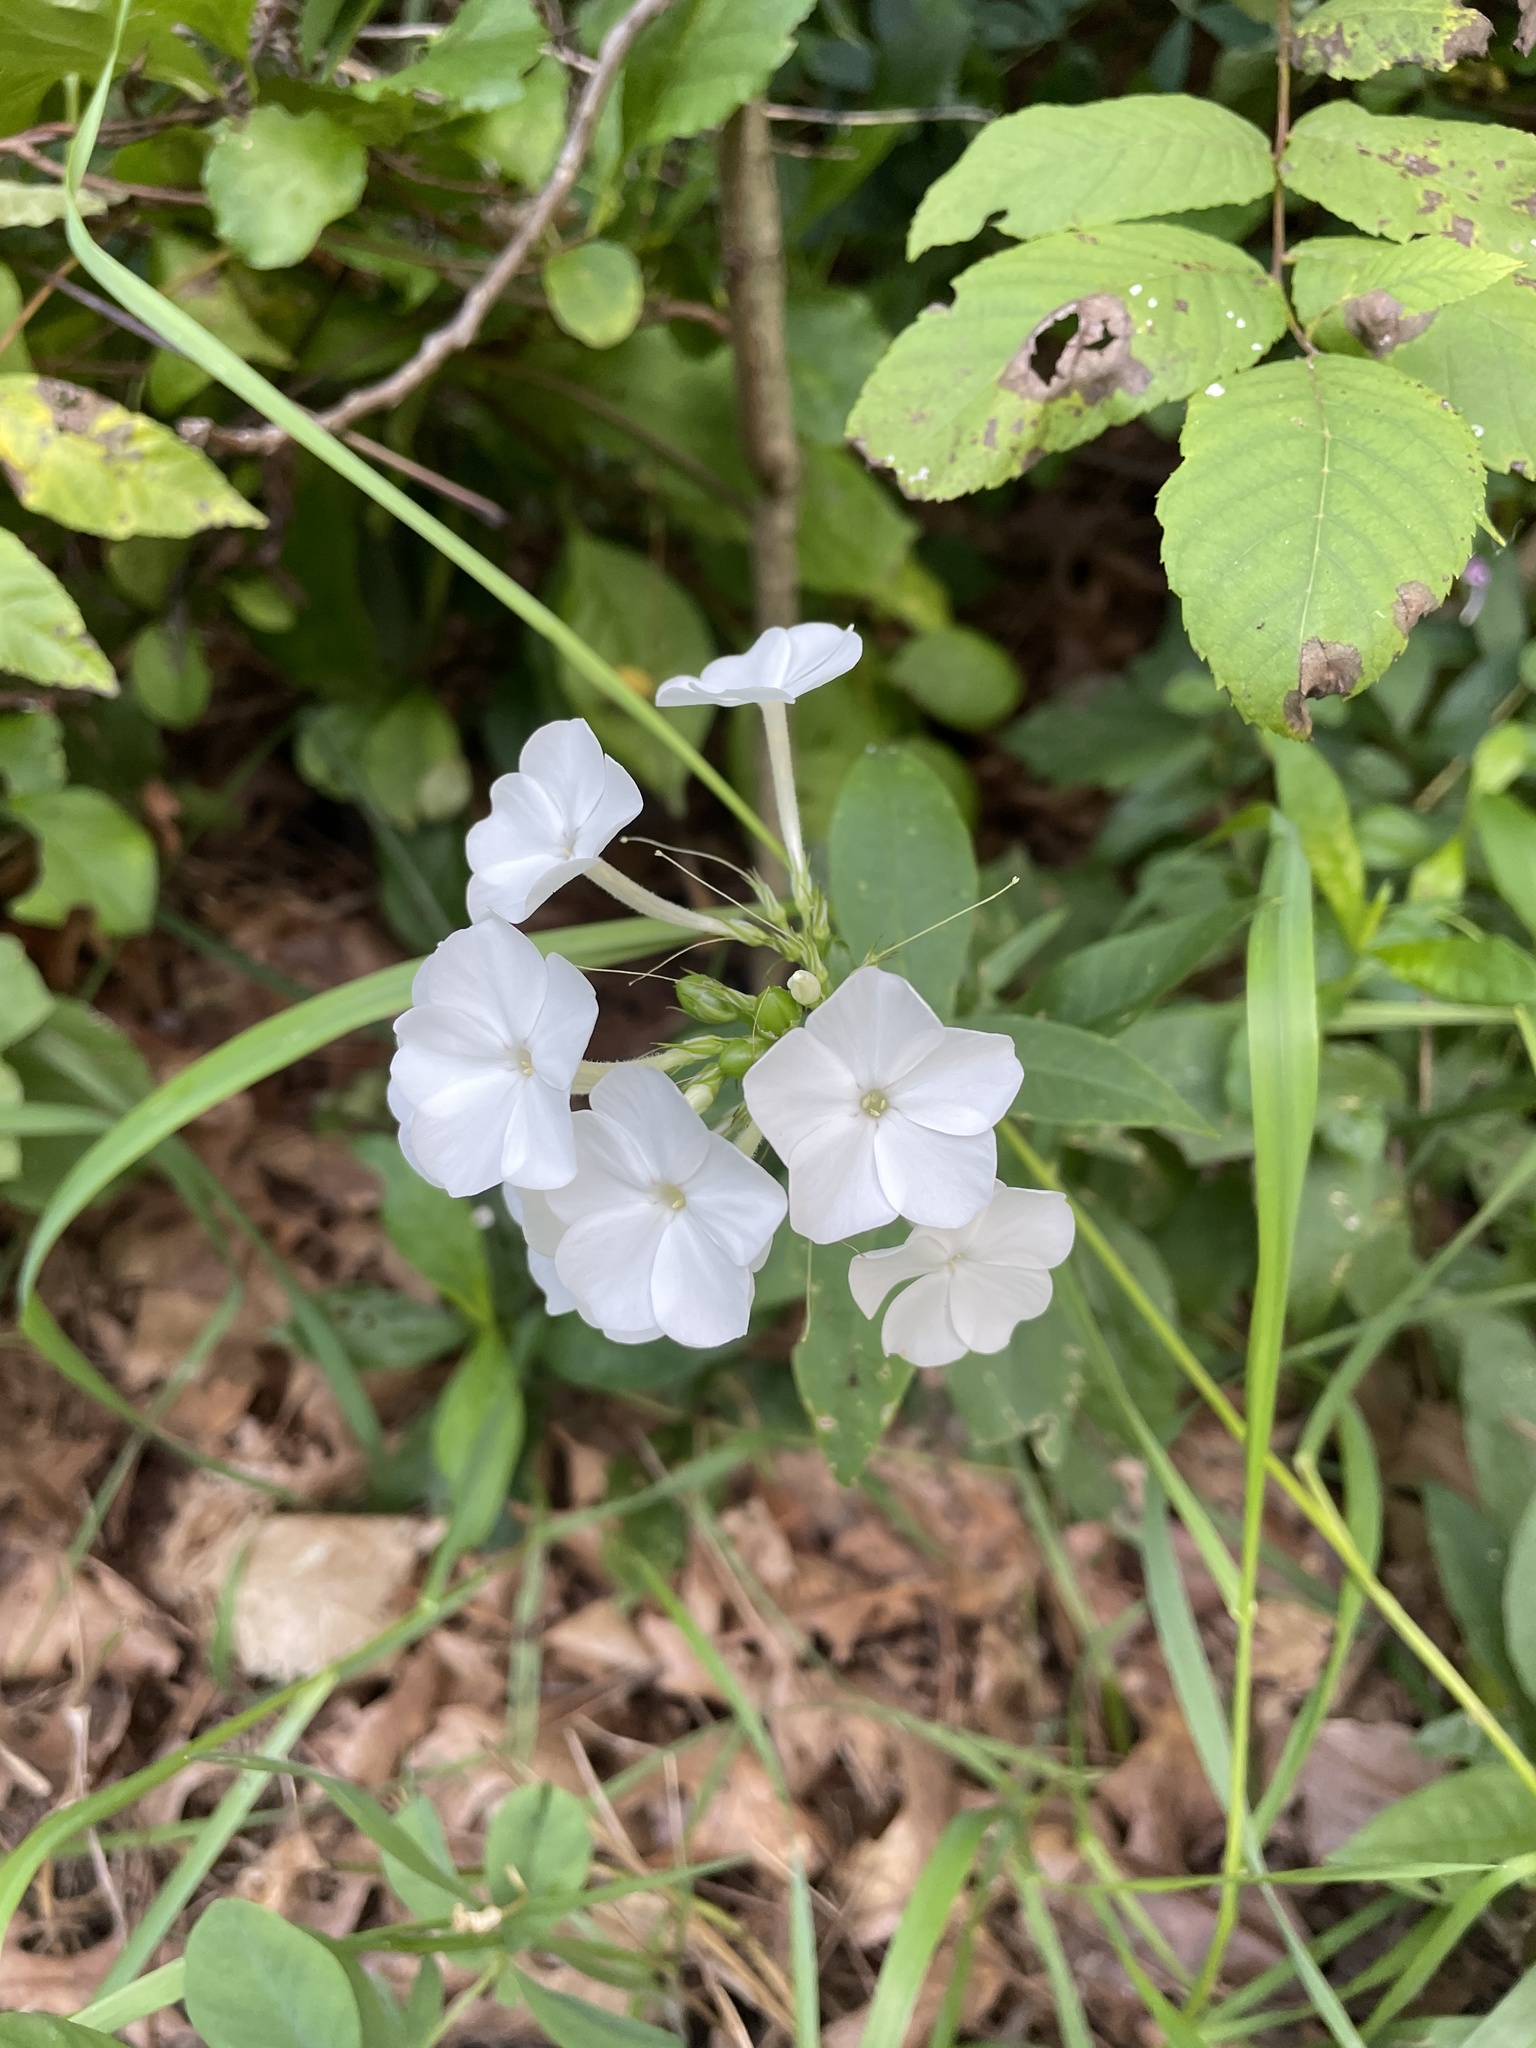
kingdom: Plantae
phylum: Tracheophyta
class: Magnoliopsida
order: Ericales
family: Polemoniaceae
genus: Phlox
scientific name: Phlox paniculata
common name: Fall phlox
